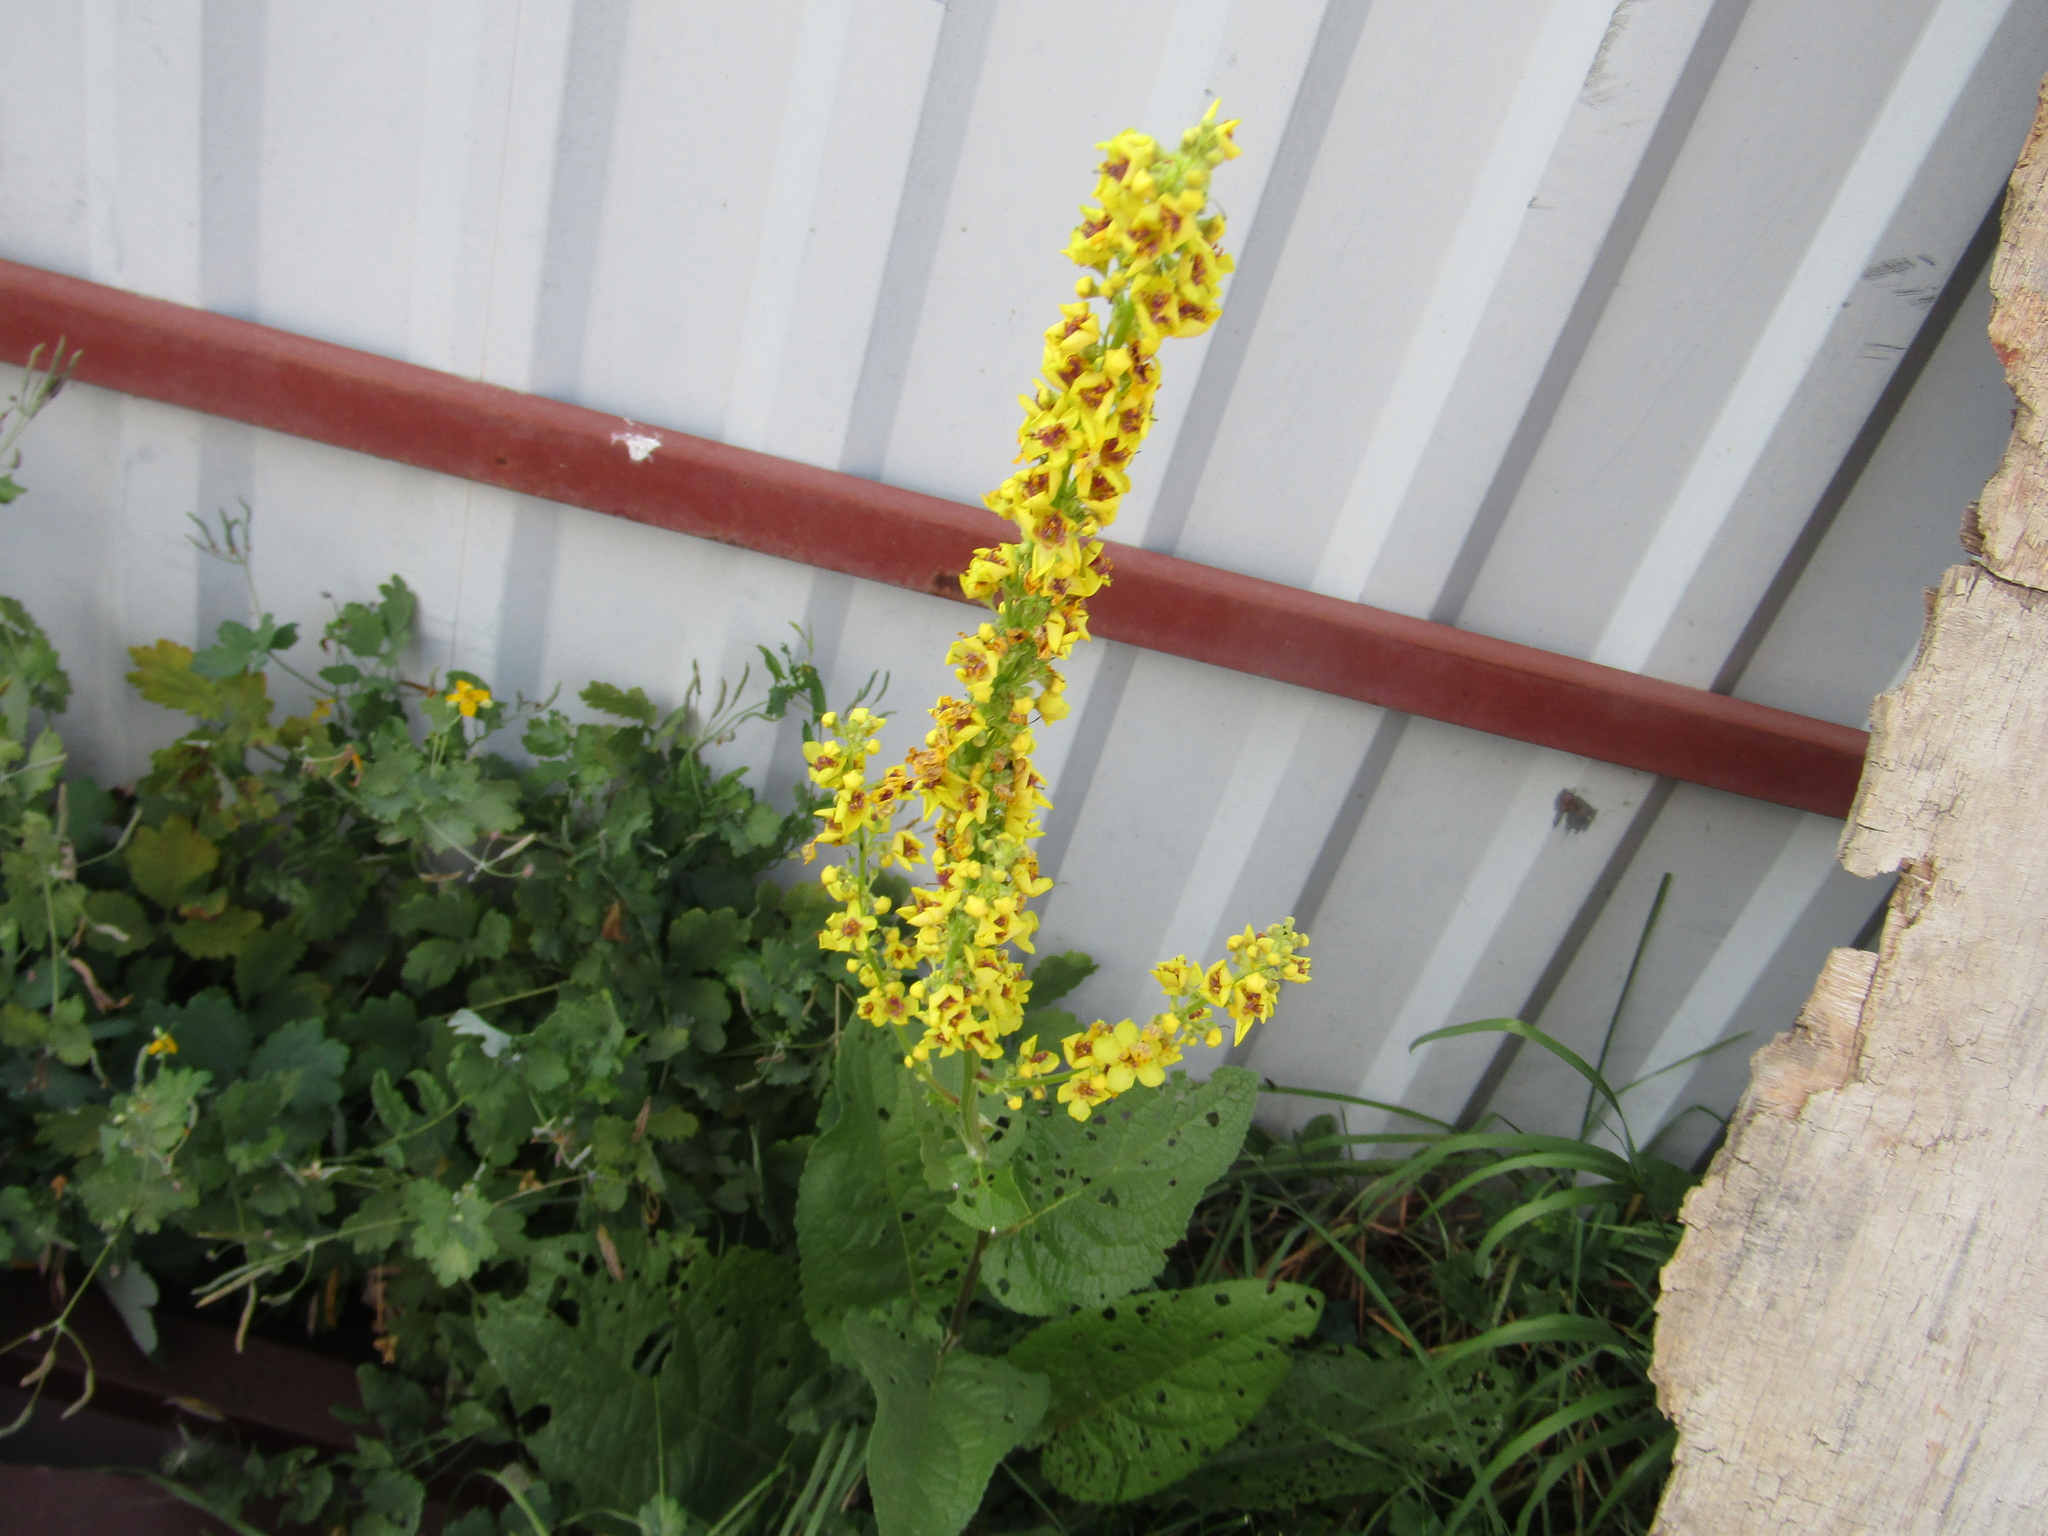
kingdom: Plantae
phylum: Tracheophyta
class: Magnoliopsida
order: Lamiales
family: Scrophulariaceae
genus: Verbascum
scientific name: Verbascum nigrum
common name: Dark mullein
